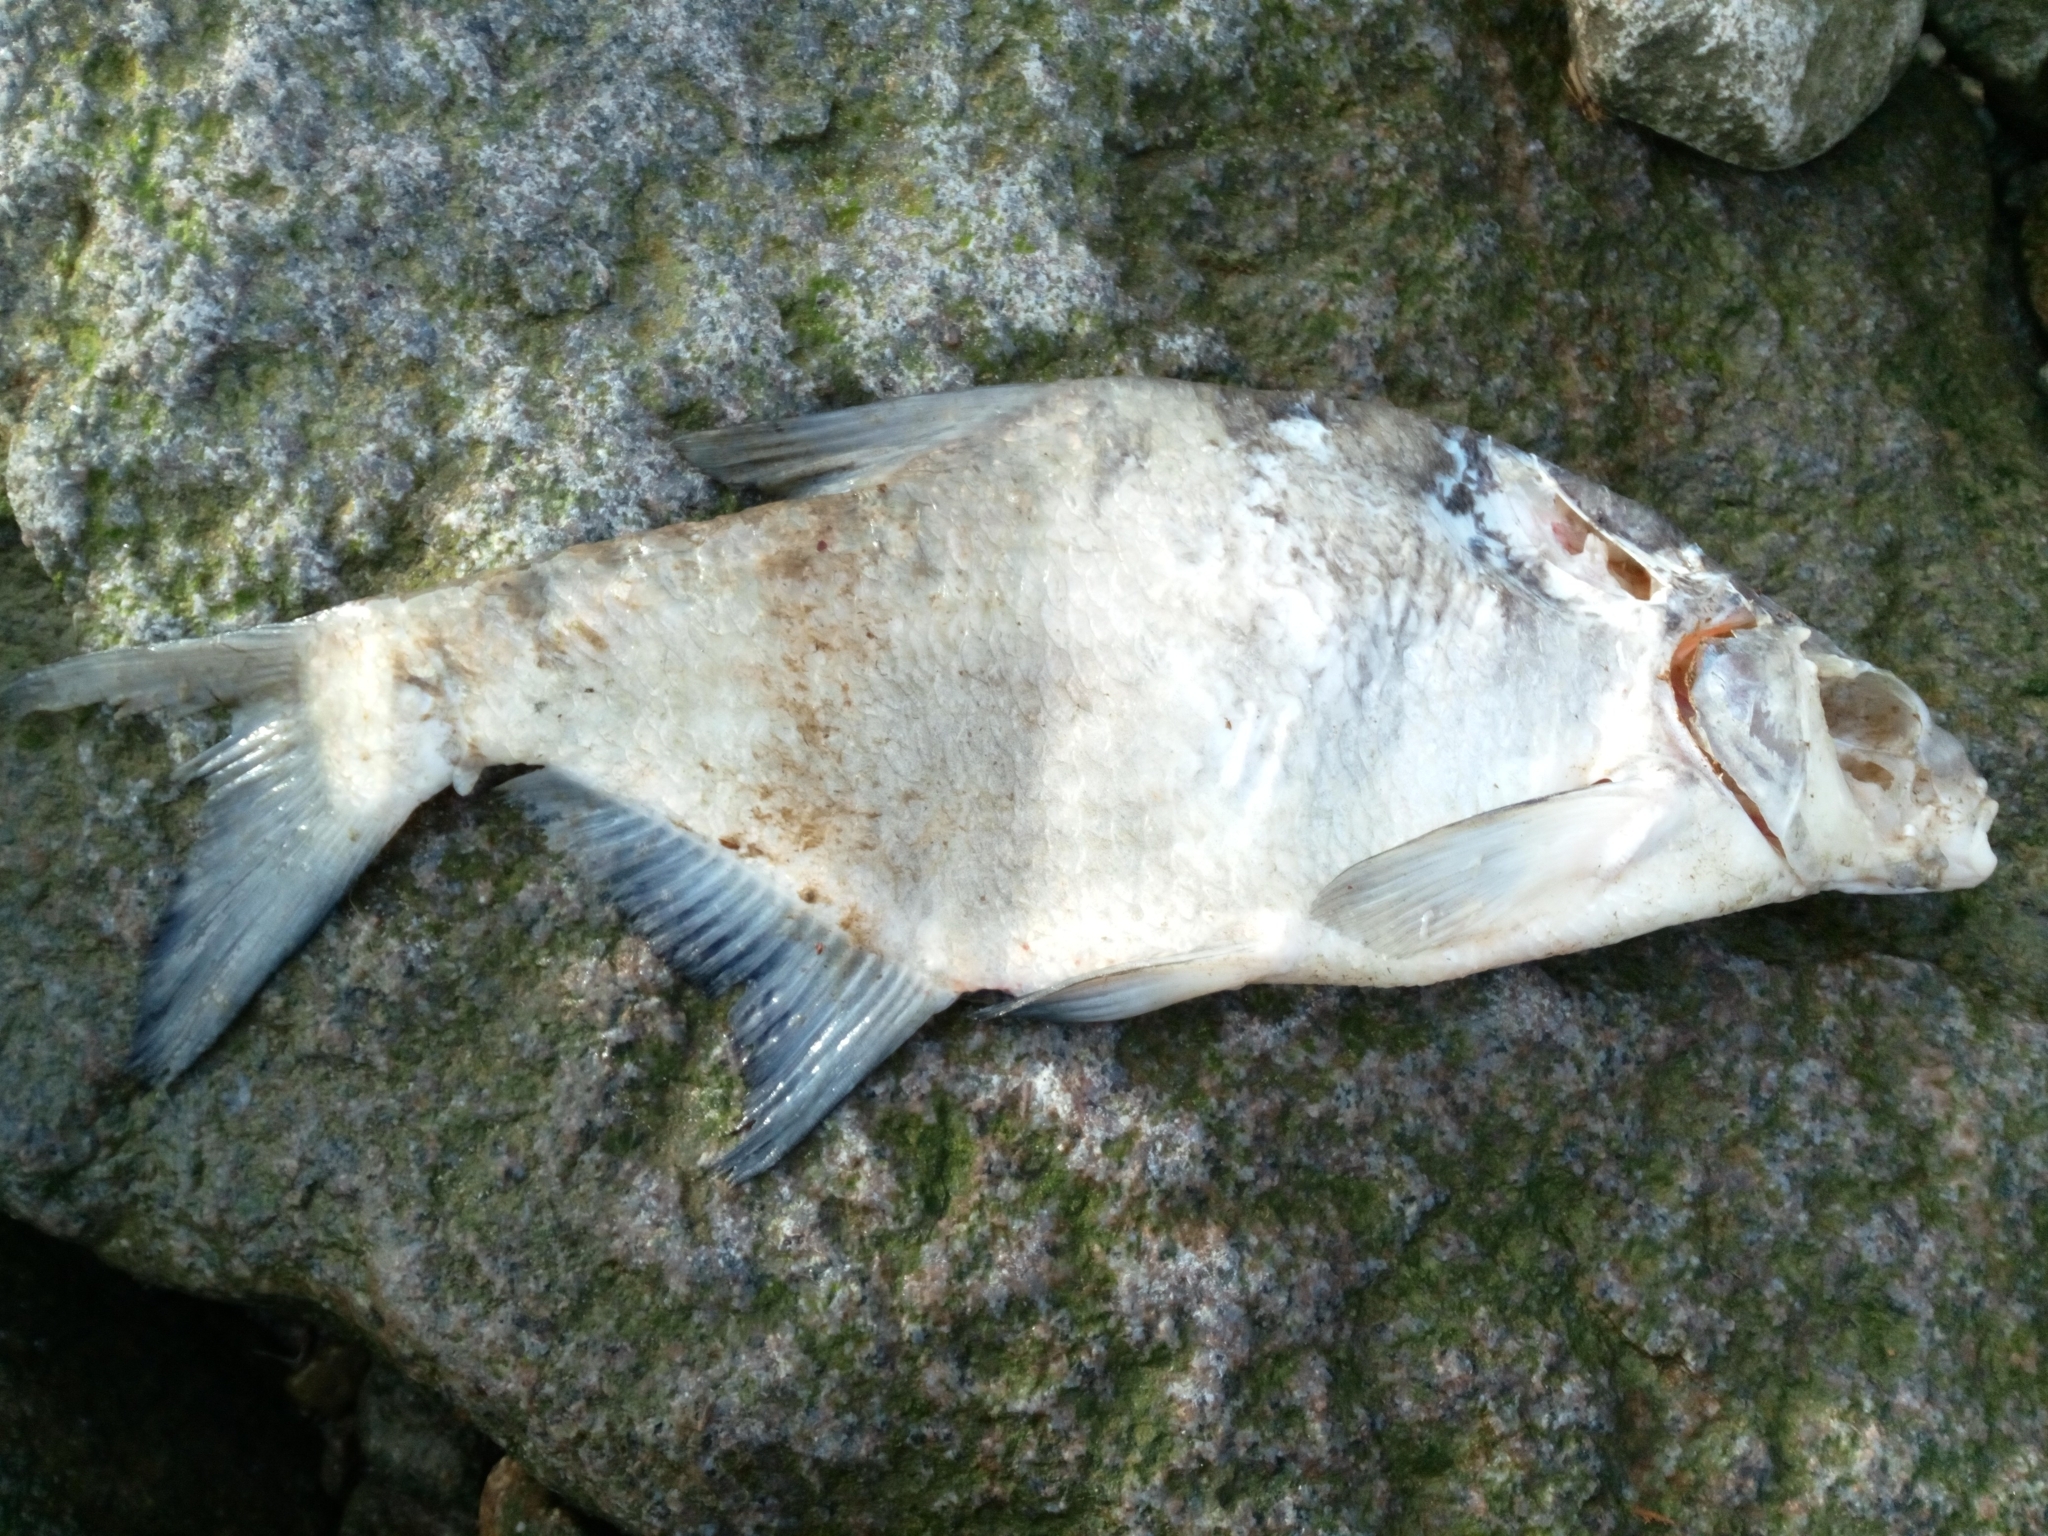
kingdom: Animalia
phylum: Chordata
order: Cypriniformes
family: Cyprinidae
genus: Abramis
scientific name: Abramis brama
